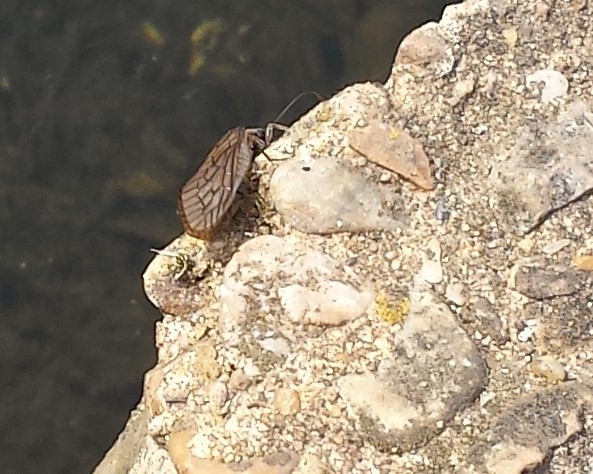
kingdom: Animalia
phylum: Arthropoda
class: Insecta
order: Megaloptera
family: Sialidae
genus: Sialis
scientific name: Sialis
